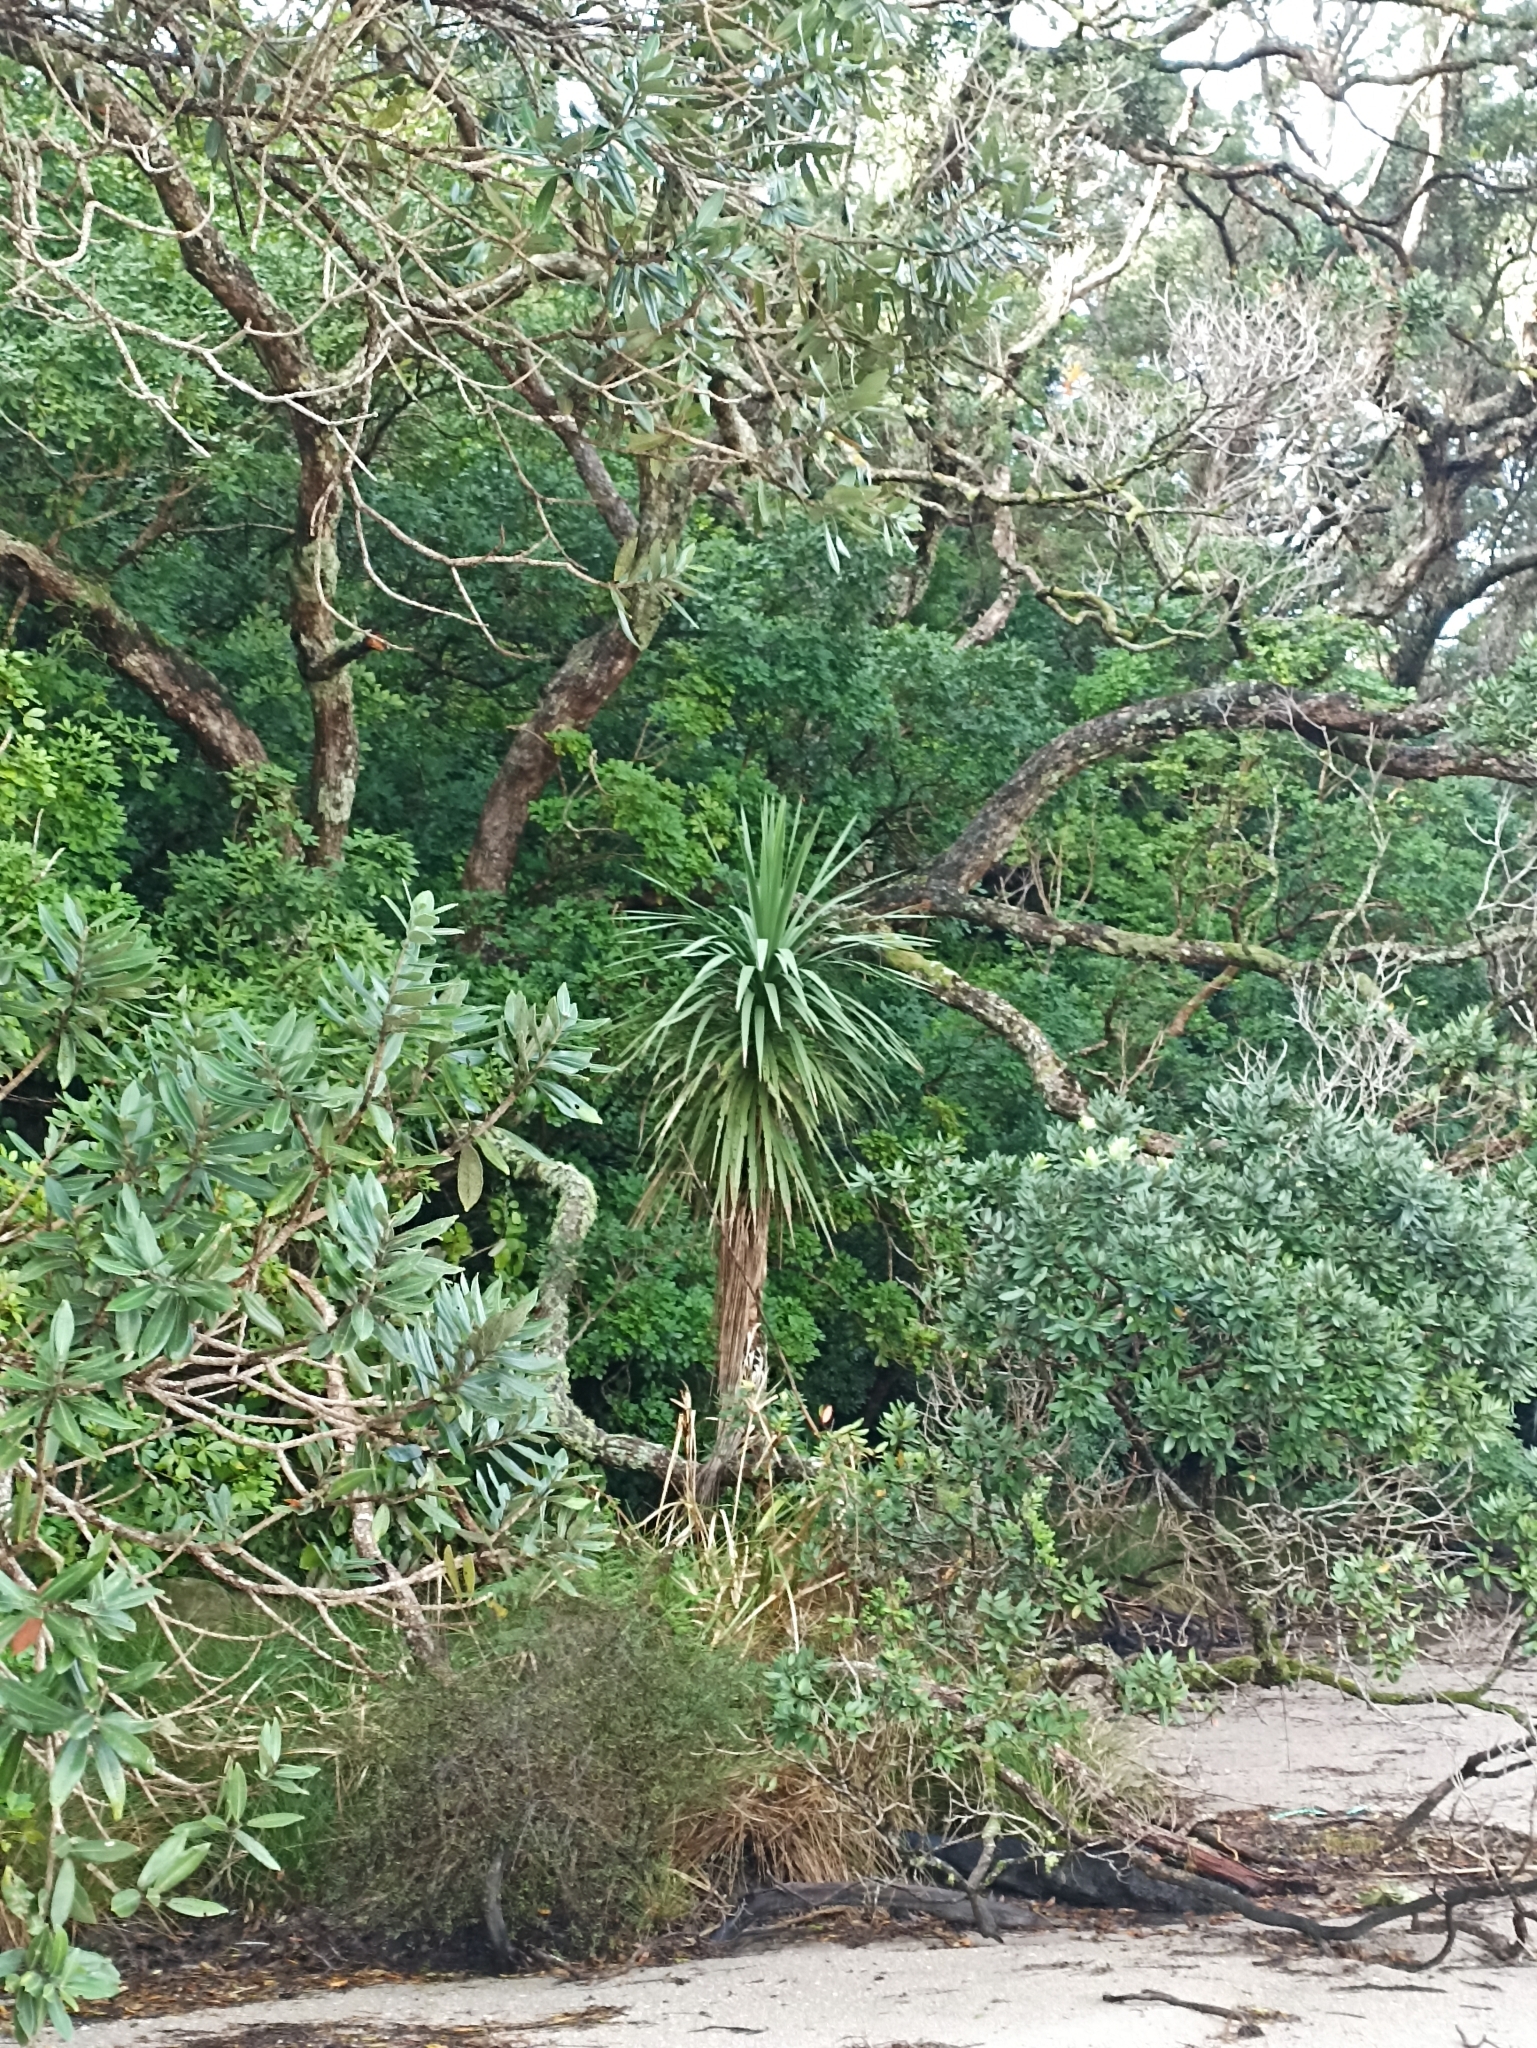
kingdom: Plantae
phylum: Tracheophyta
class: Liliopsida
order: Asparagales
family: Asparagaceae
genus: Cordyline
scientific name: Cordyline australis
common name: Cabbage-palm
